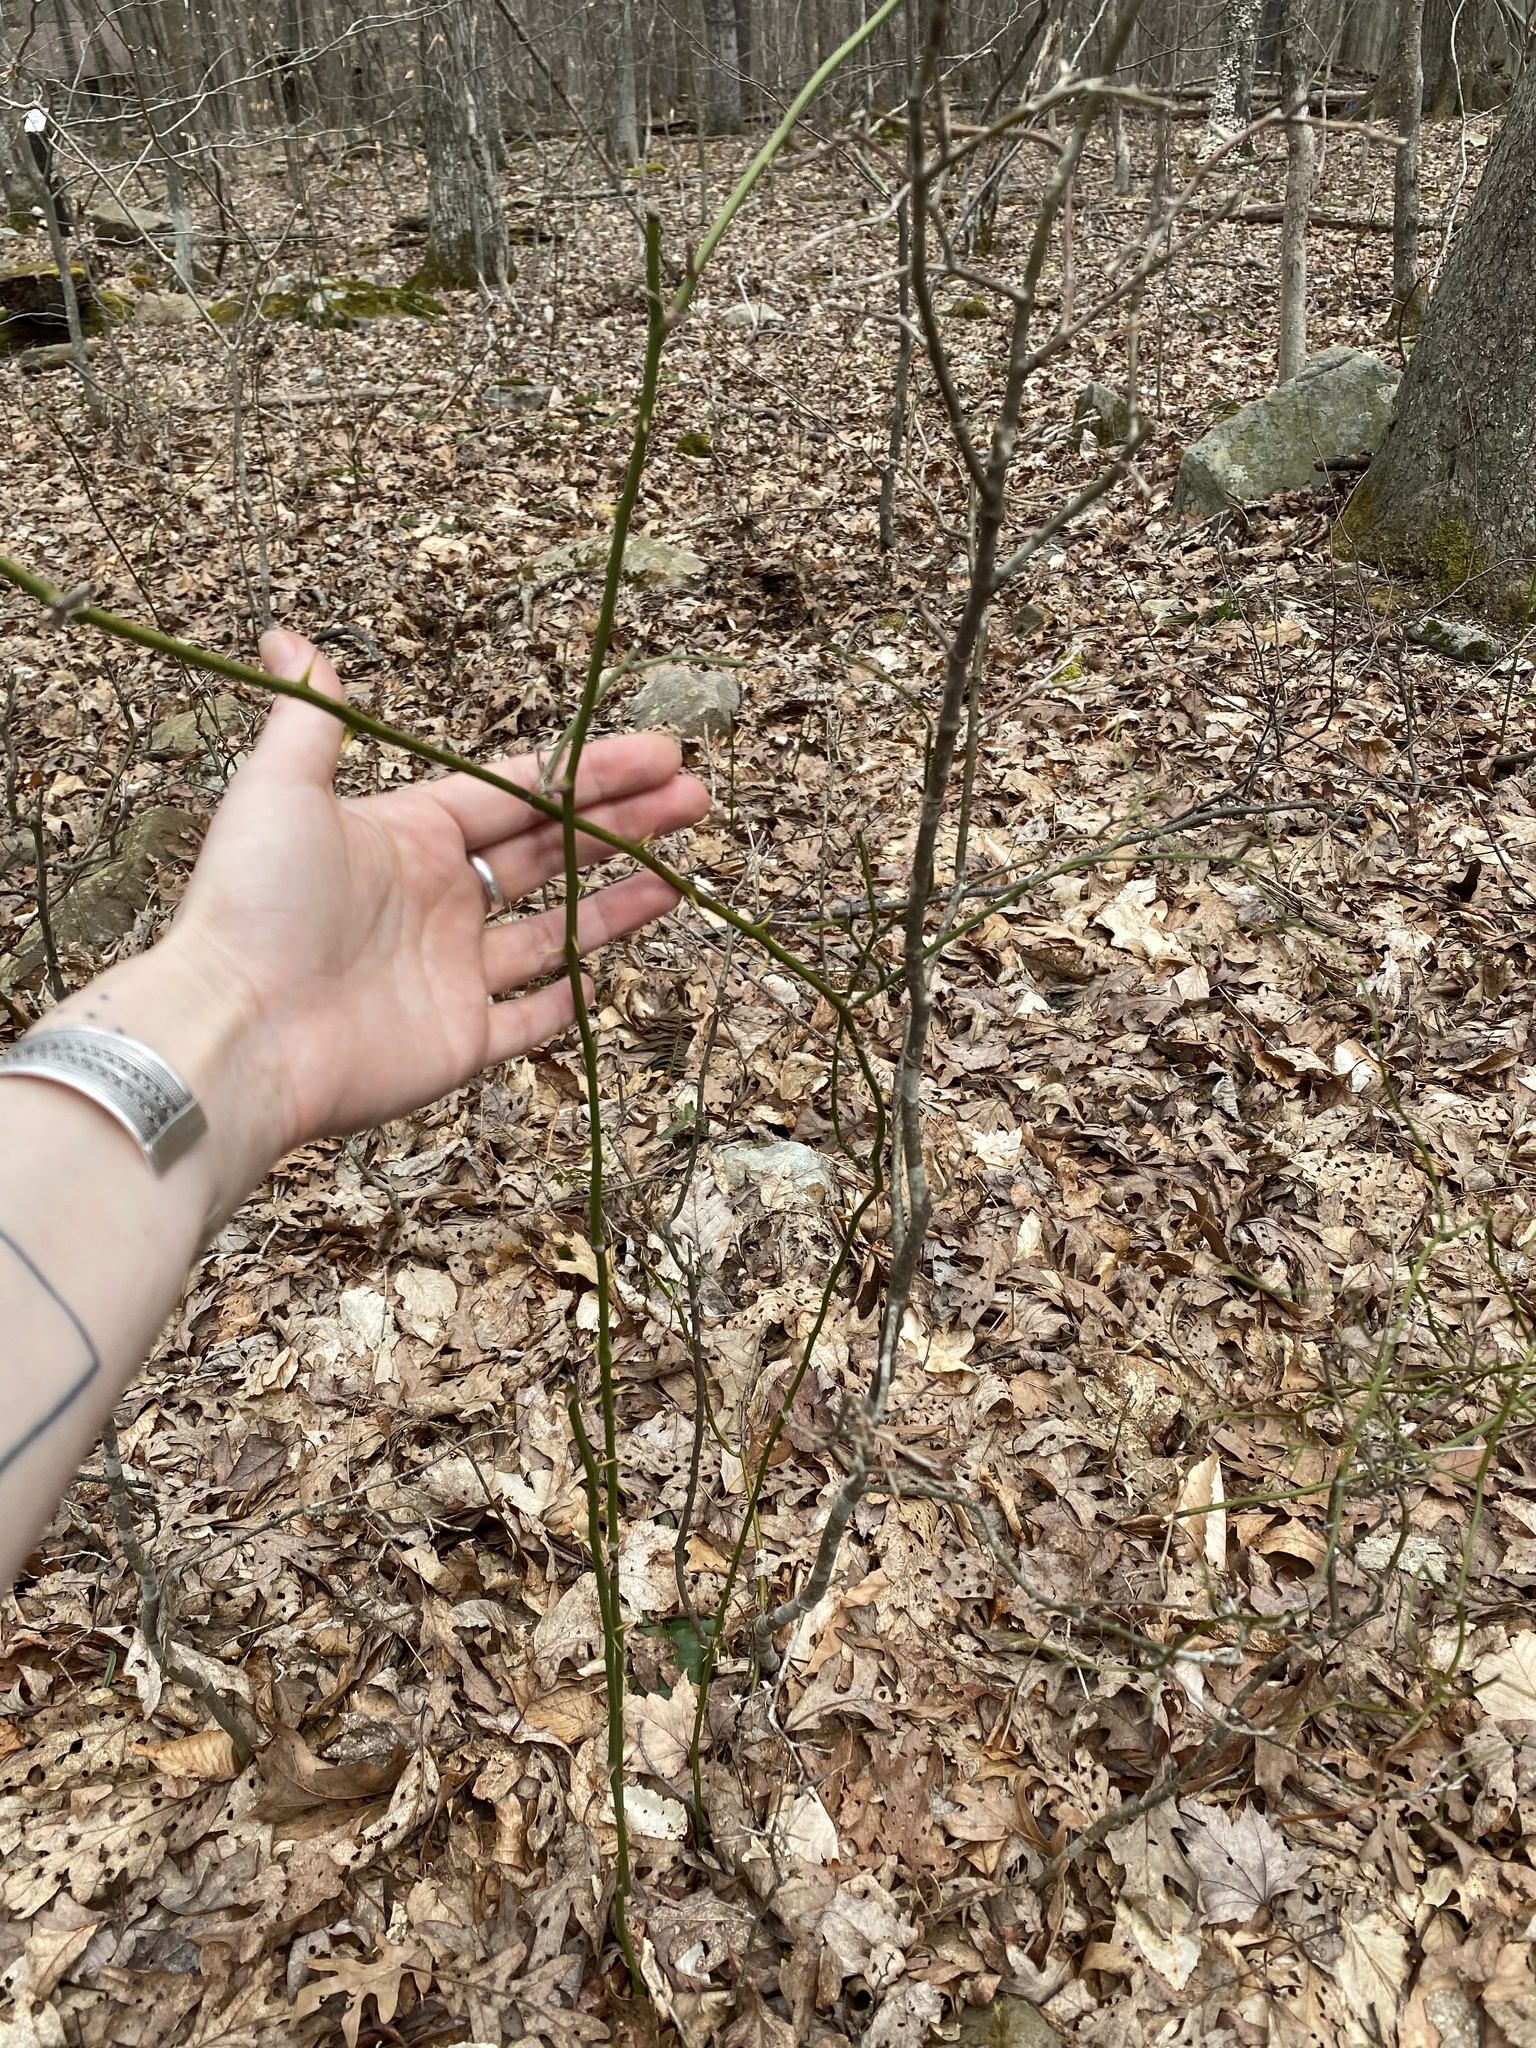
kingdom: Plantae
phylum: Tracheophyta
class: Liliopsida
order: Liliales
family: Smilacaceae
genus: Smilax
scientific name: Smilax rotundifolia
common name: Bullbriar
